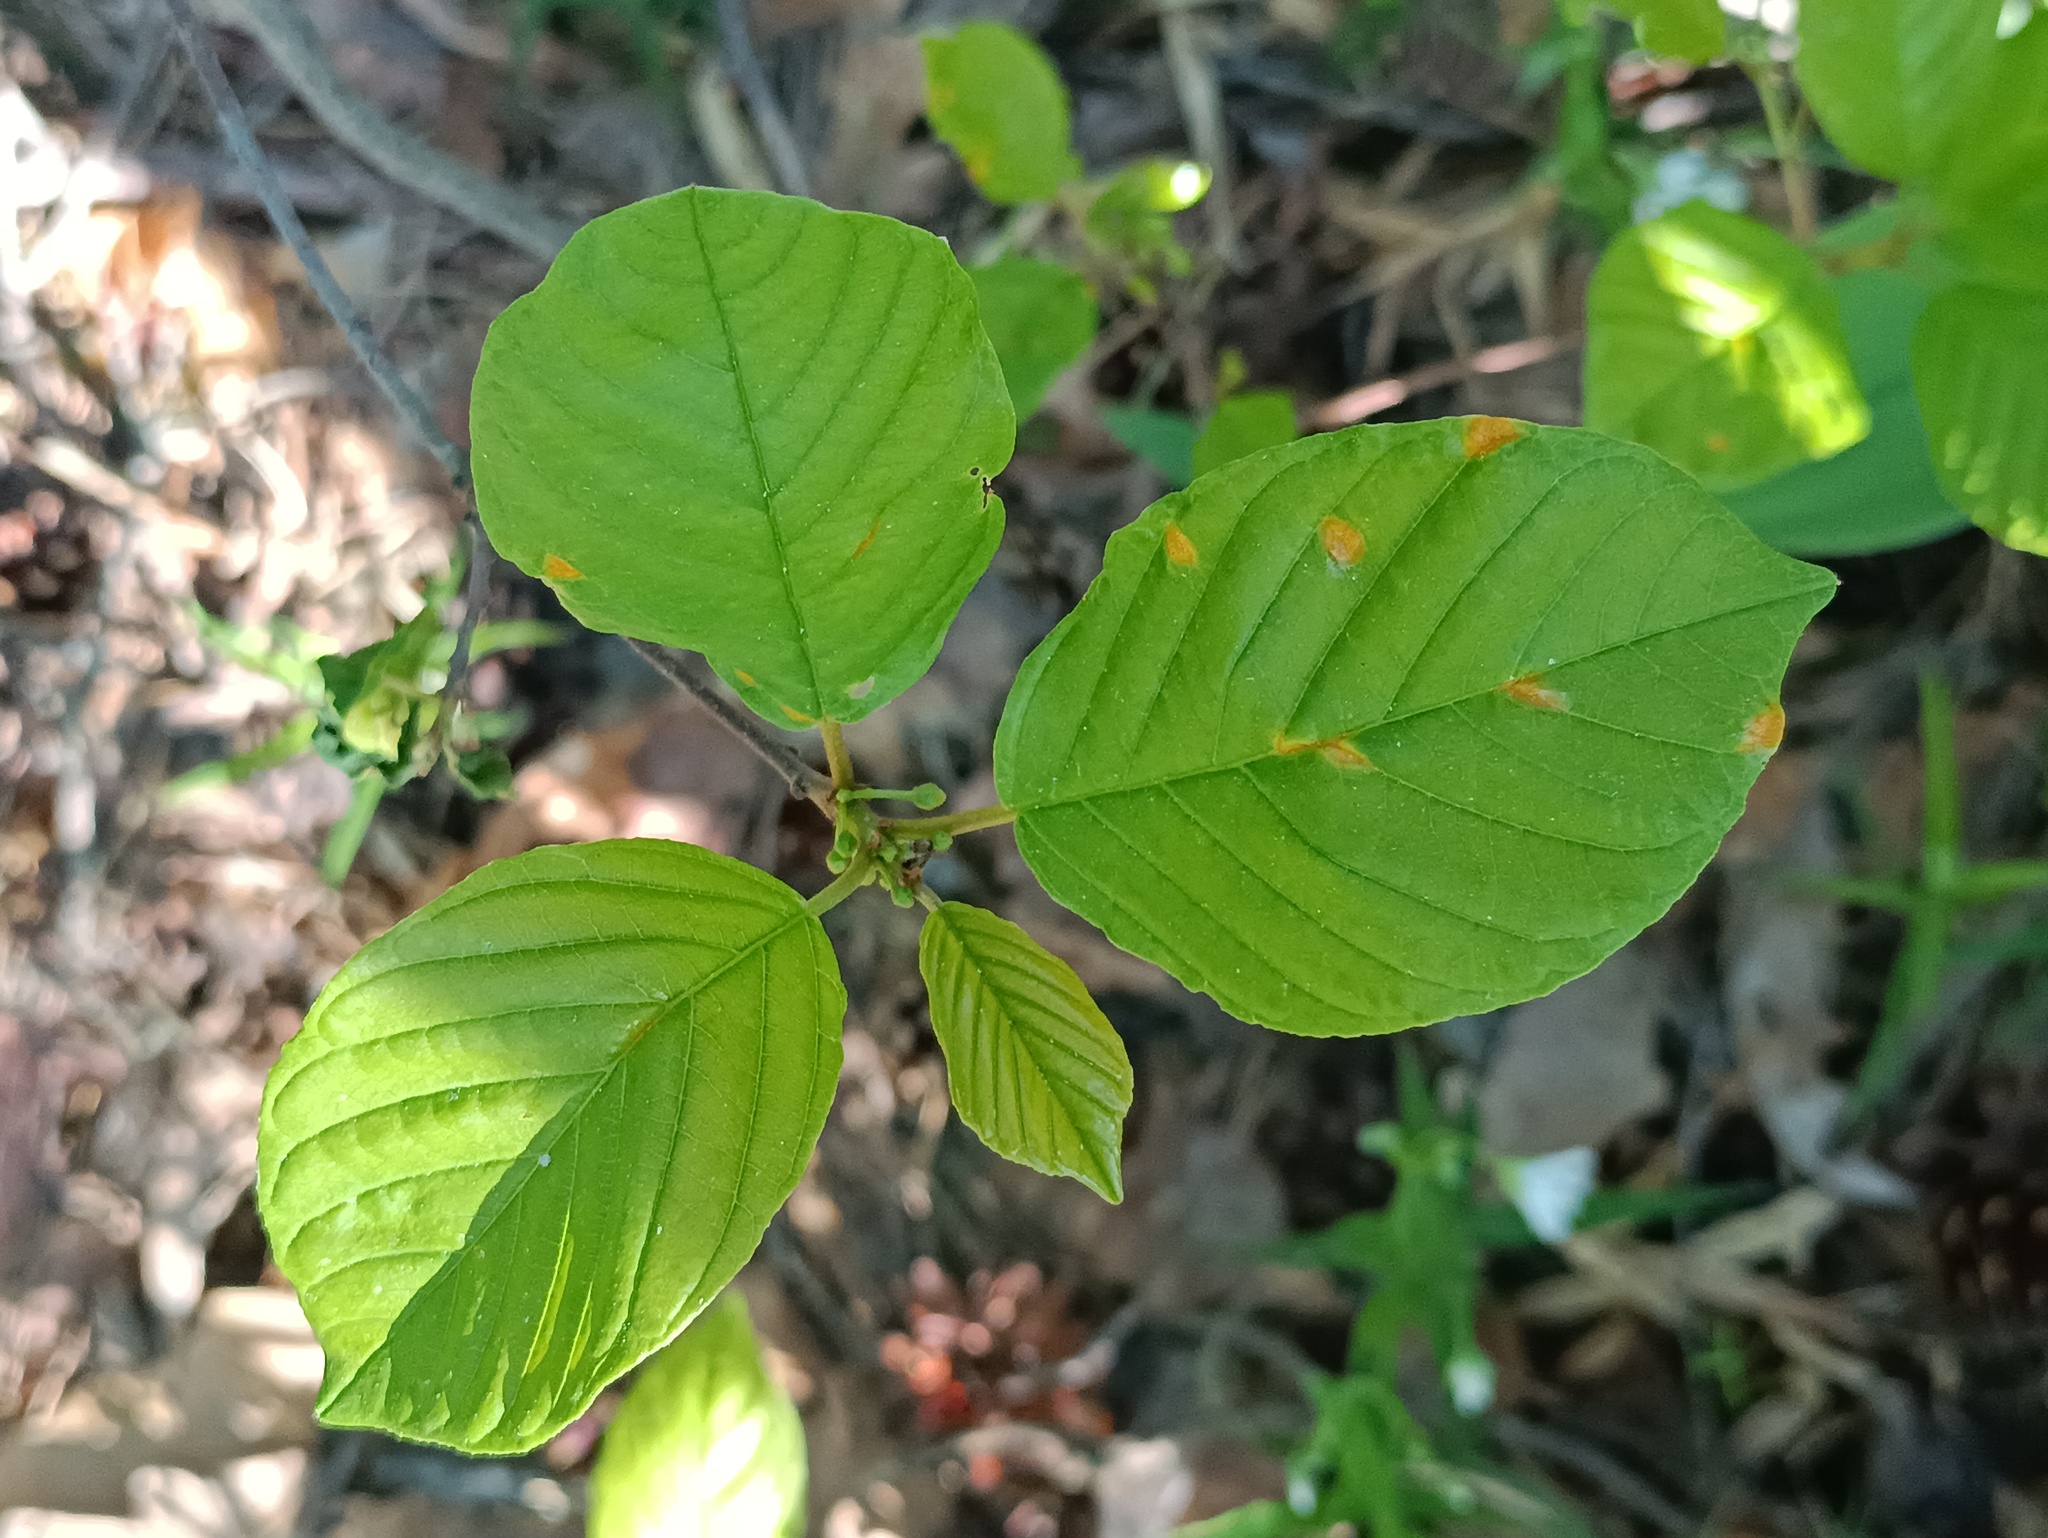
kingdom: Plantae
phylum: Tracheophyta
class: Magnoliopsida
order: Rosales
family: Rhamnaceae
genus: Frangula
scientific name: Frangula alnus
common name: Alder buckthorn
